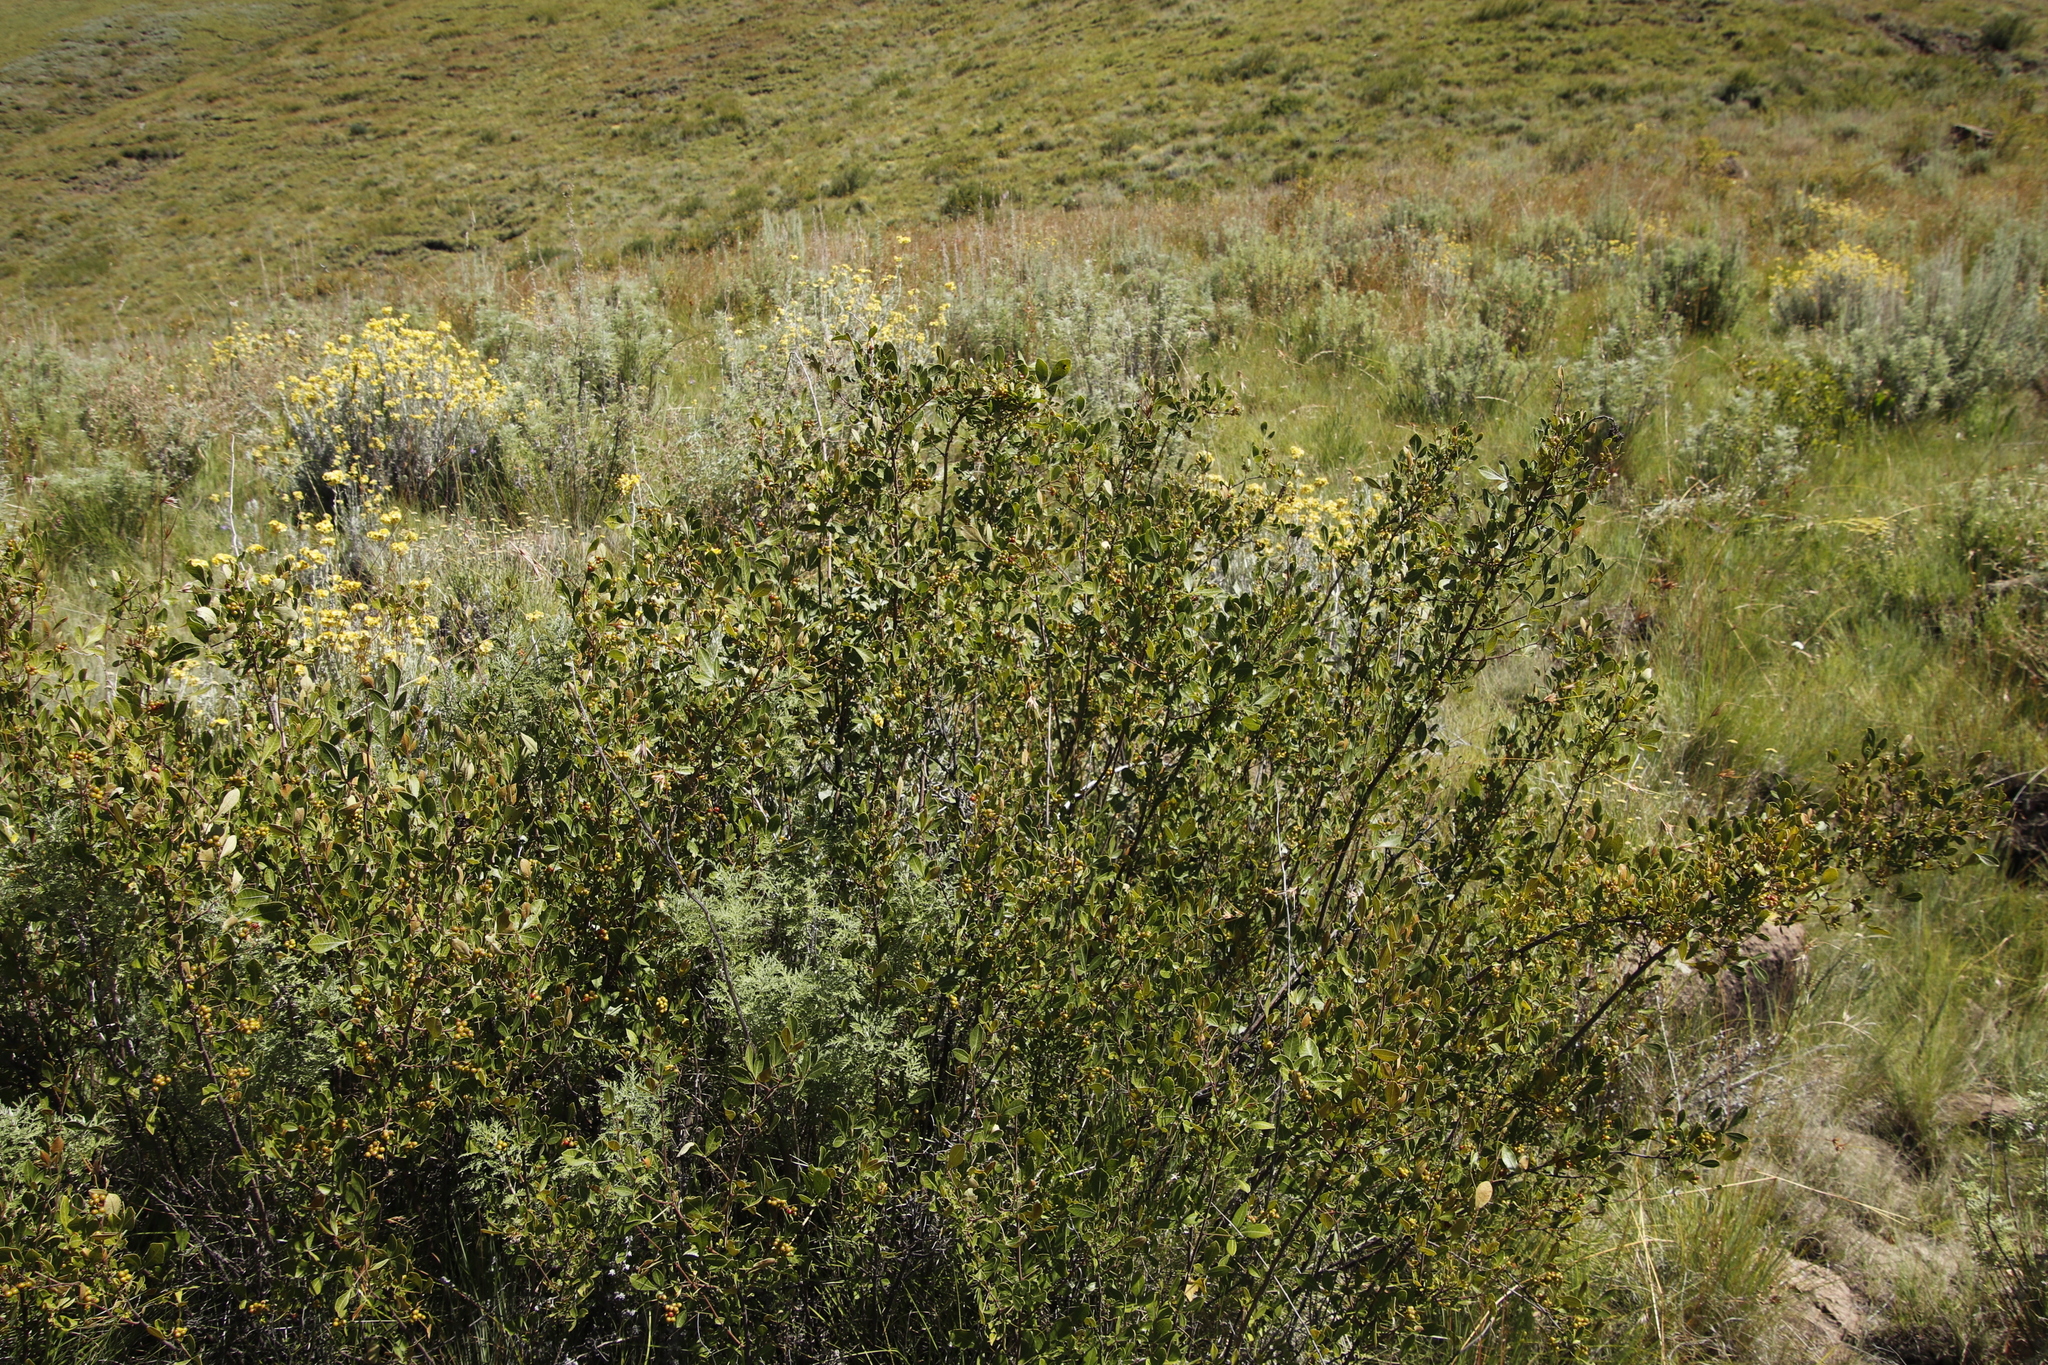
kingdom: Plantae
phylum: Tracheophyta
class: Magnoliopsida
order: Sapindales
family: Anacardiaceae
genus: Searsia
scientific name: Searsia divaricata
